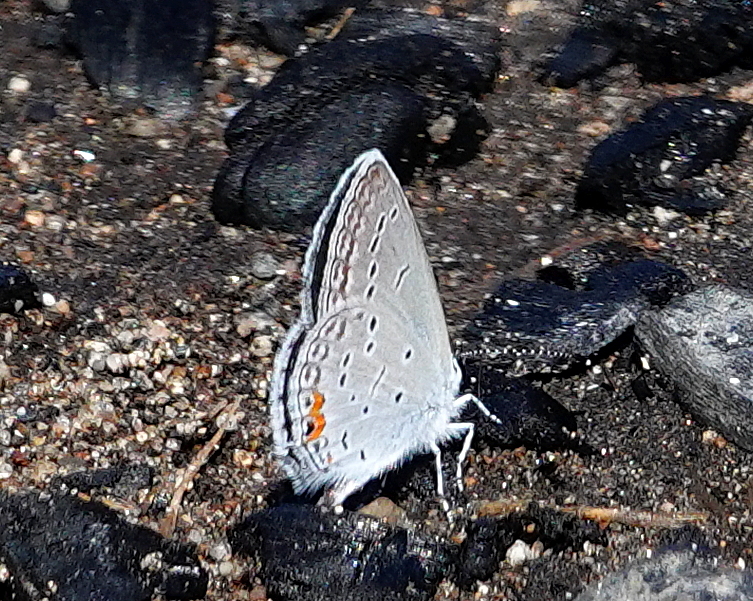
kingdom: Animalia
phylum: Arthropoda
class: Insecta
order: Lepidoptera
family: Lycaenidae
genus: Elkalyce
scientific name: Elkalyce comyntas
